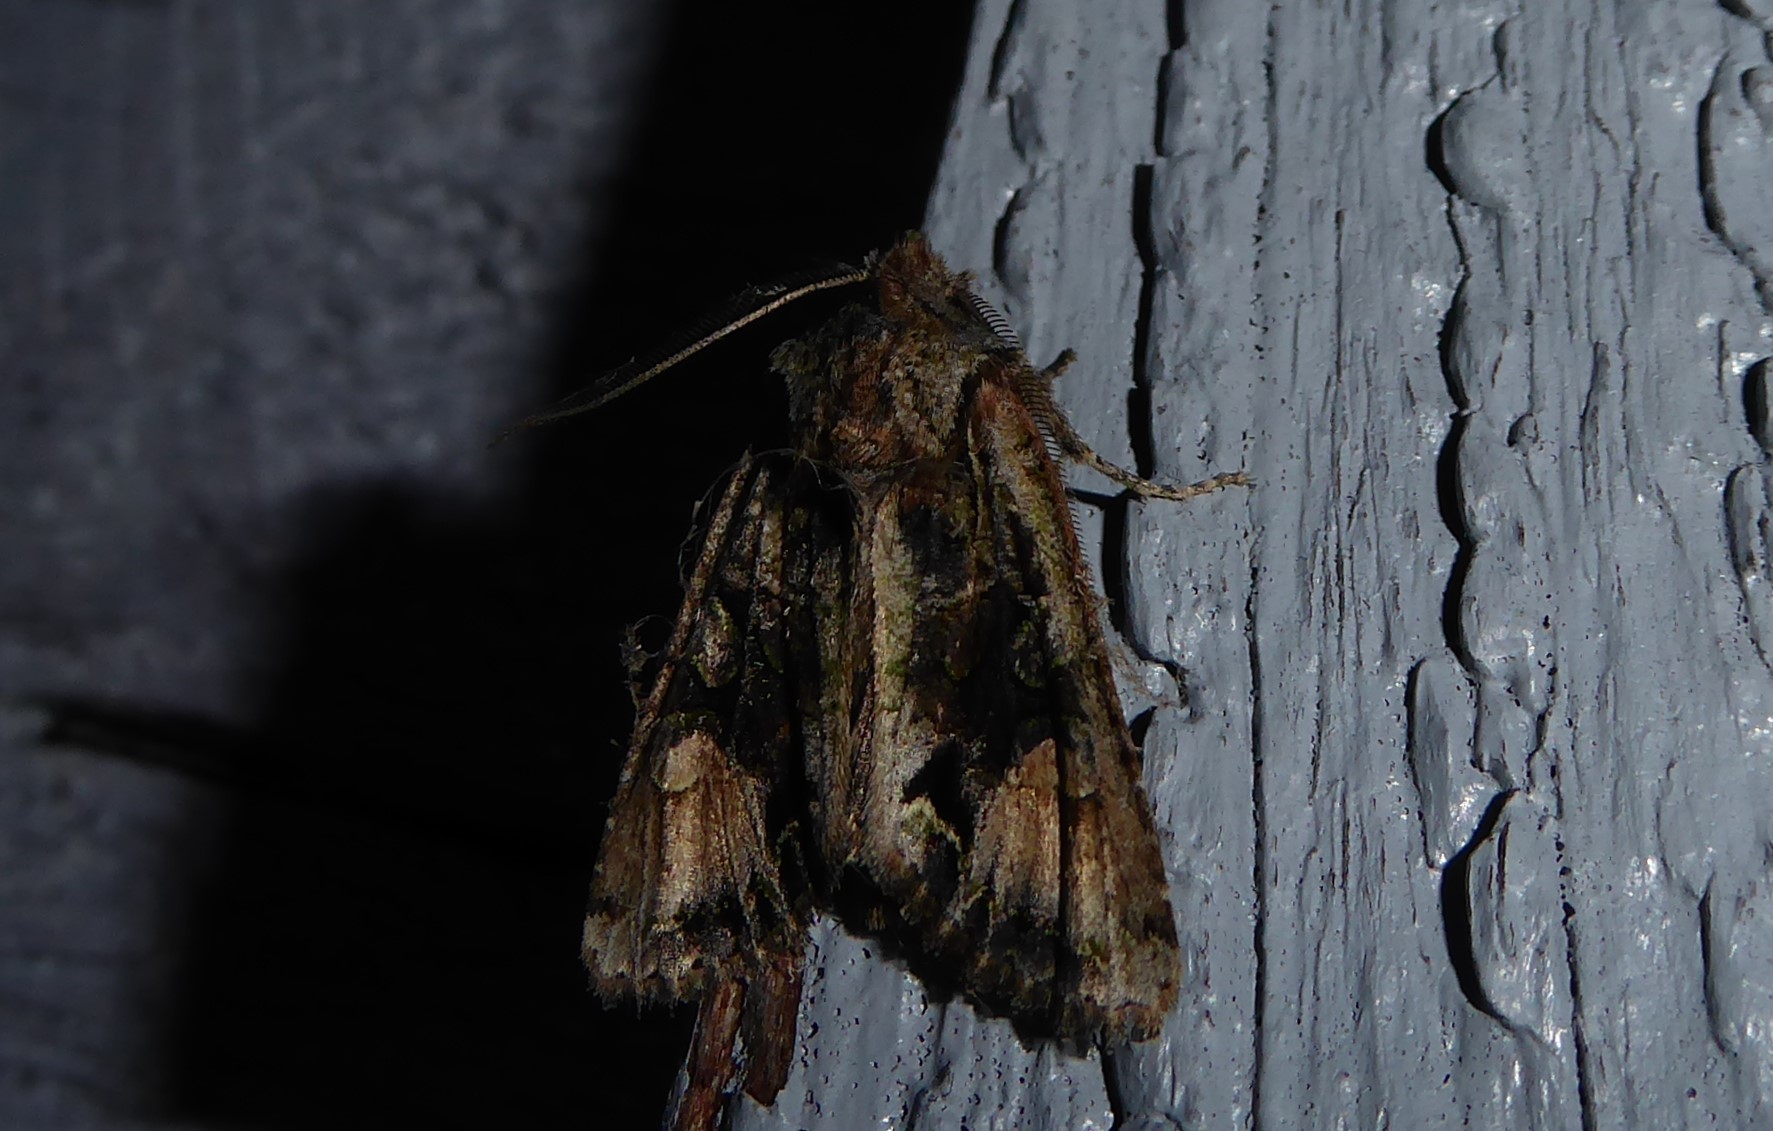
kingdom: Animalia
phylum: Arthropoda
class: Insecta
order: Lepidoptera
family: Noctuidae
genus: Ichneutica
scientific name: Ichneutica skelloni
